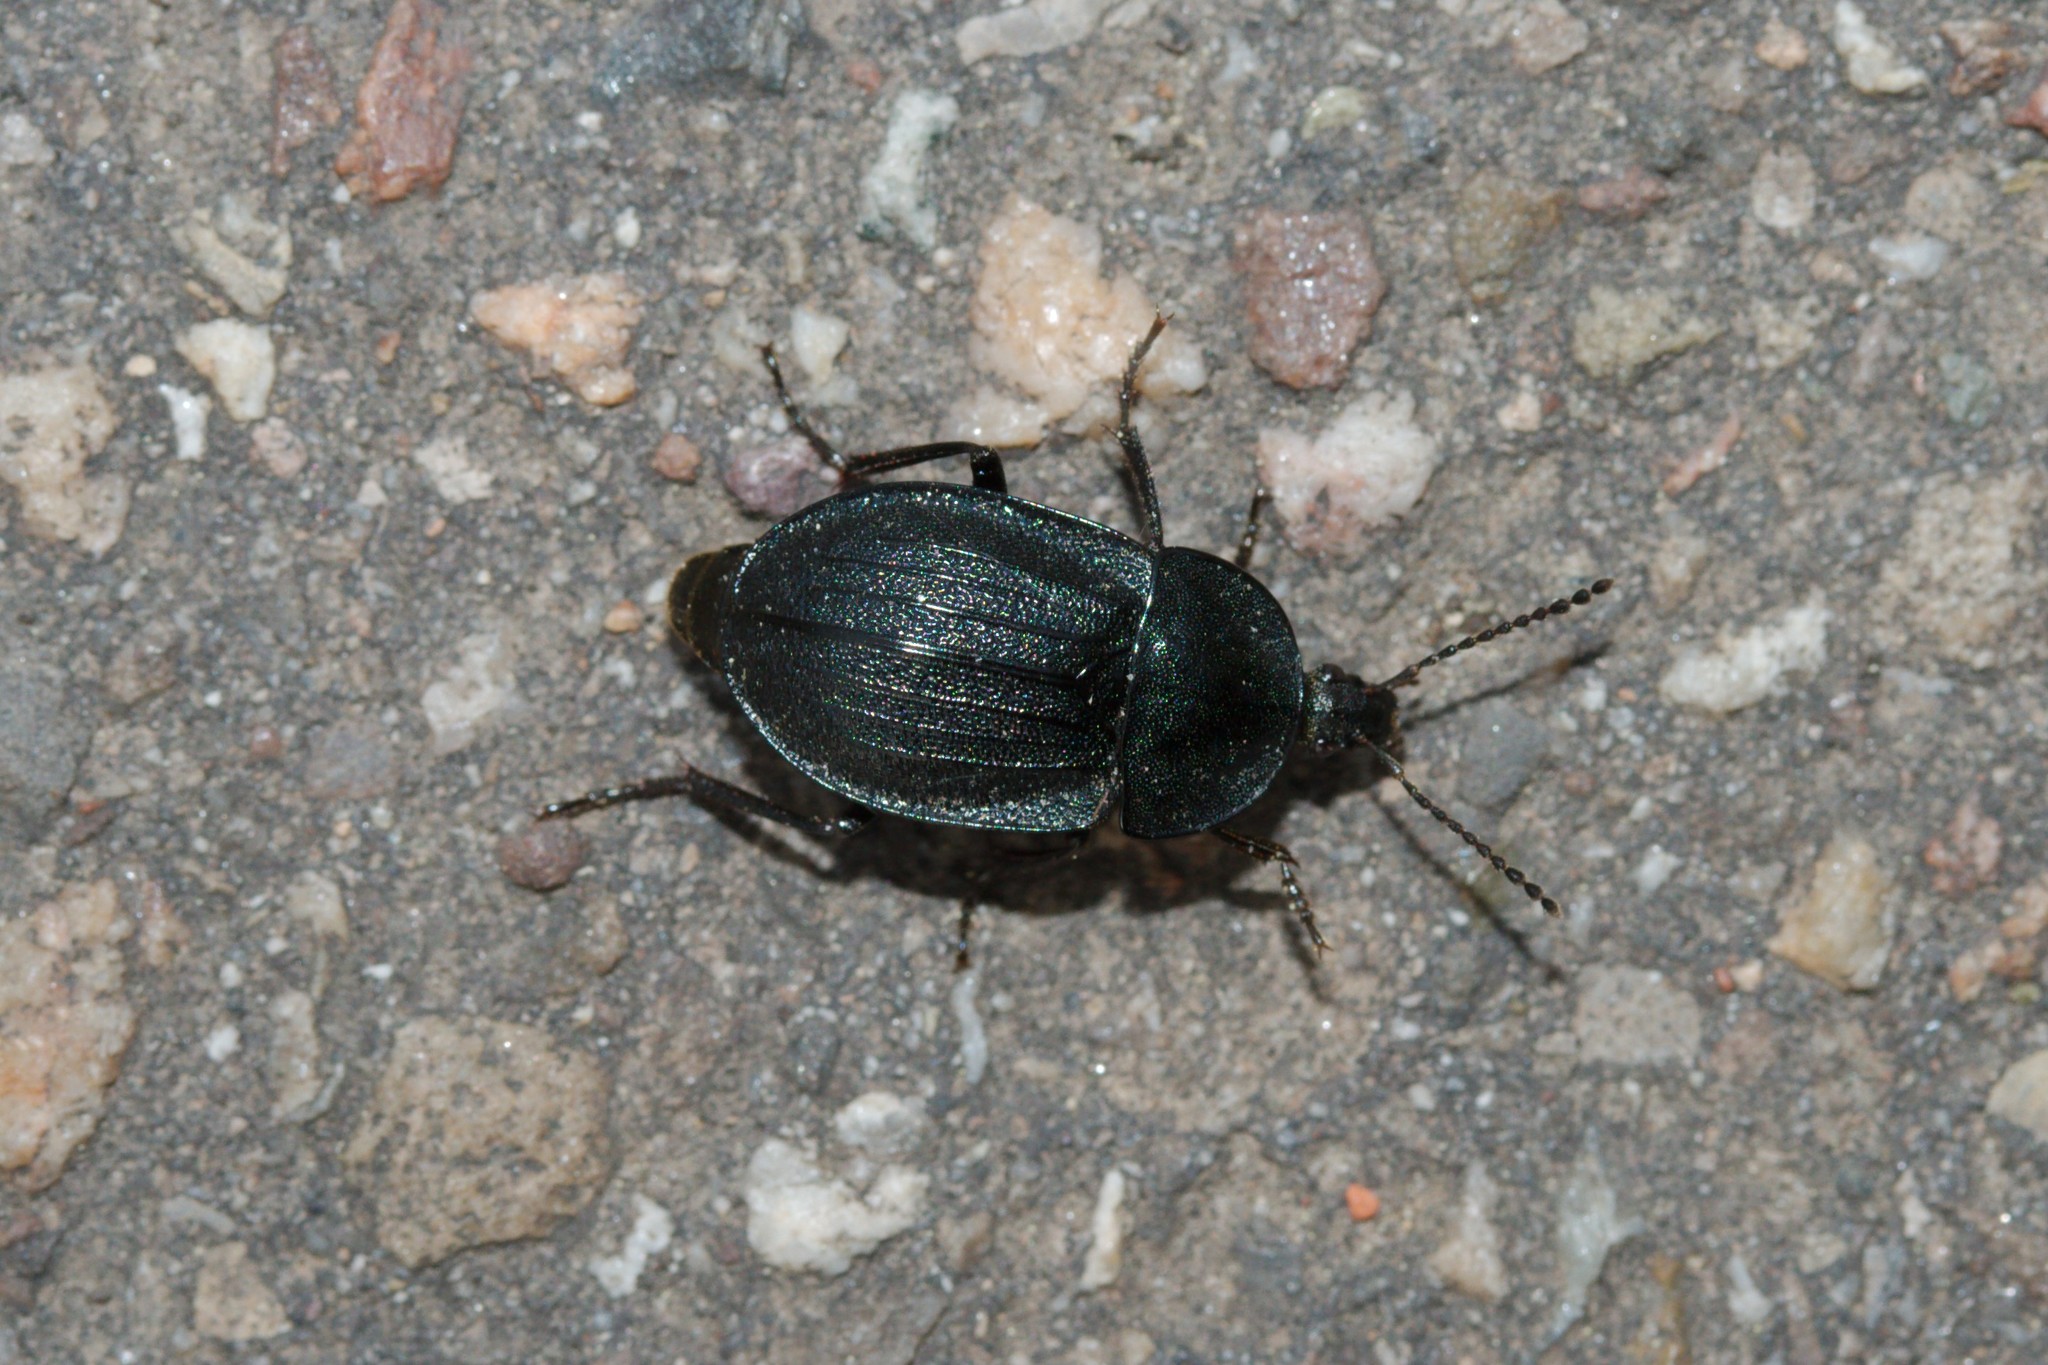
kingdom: Animalia
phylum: Arthropoda
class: Insecta
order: Coleoptera
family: Staphylinidae
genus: Silpha
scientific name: Silpha atrata
